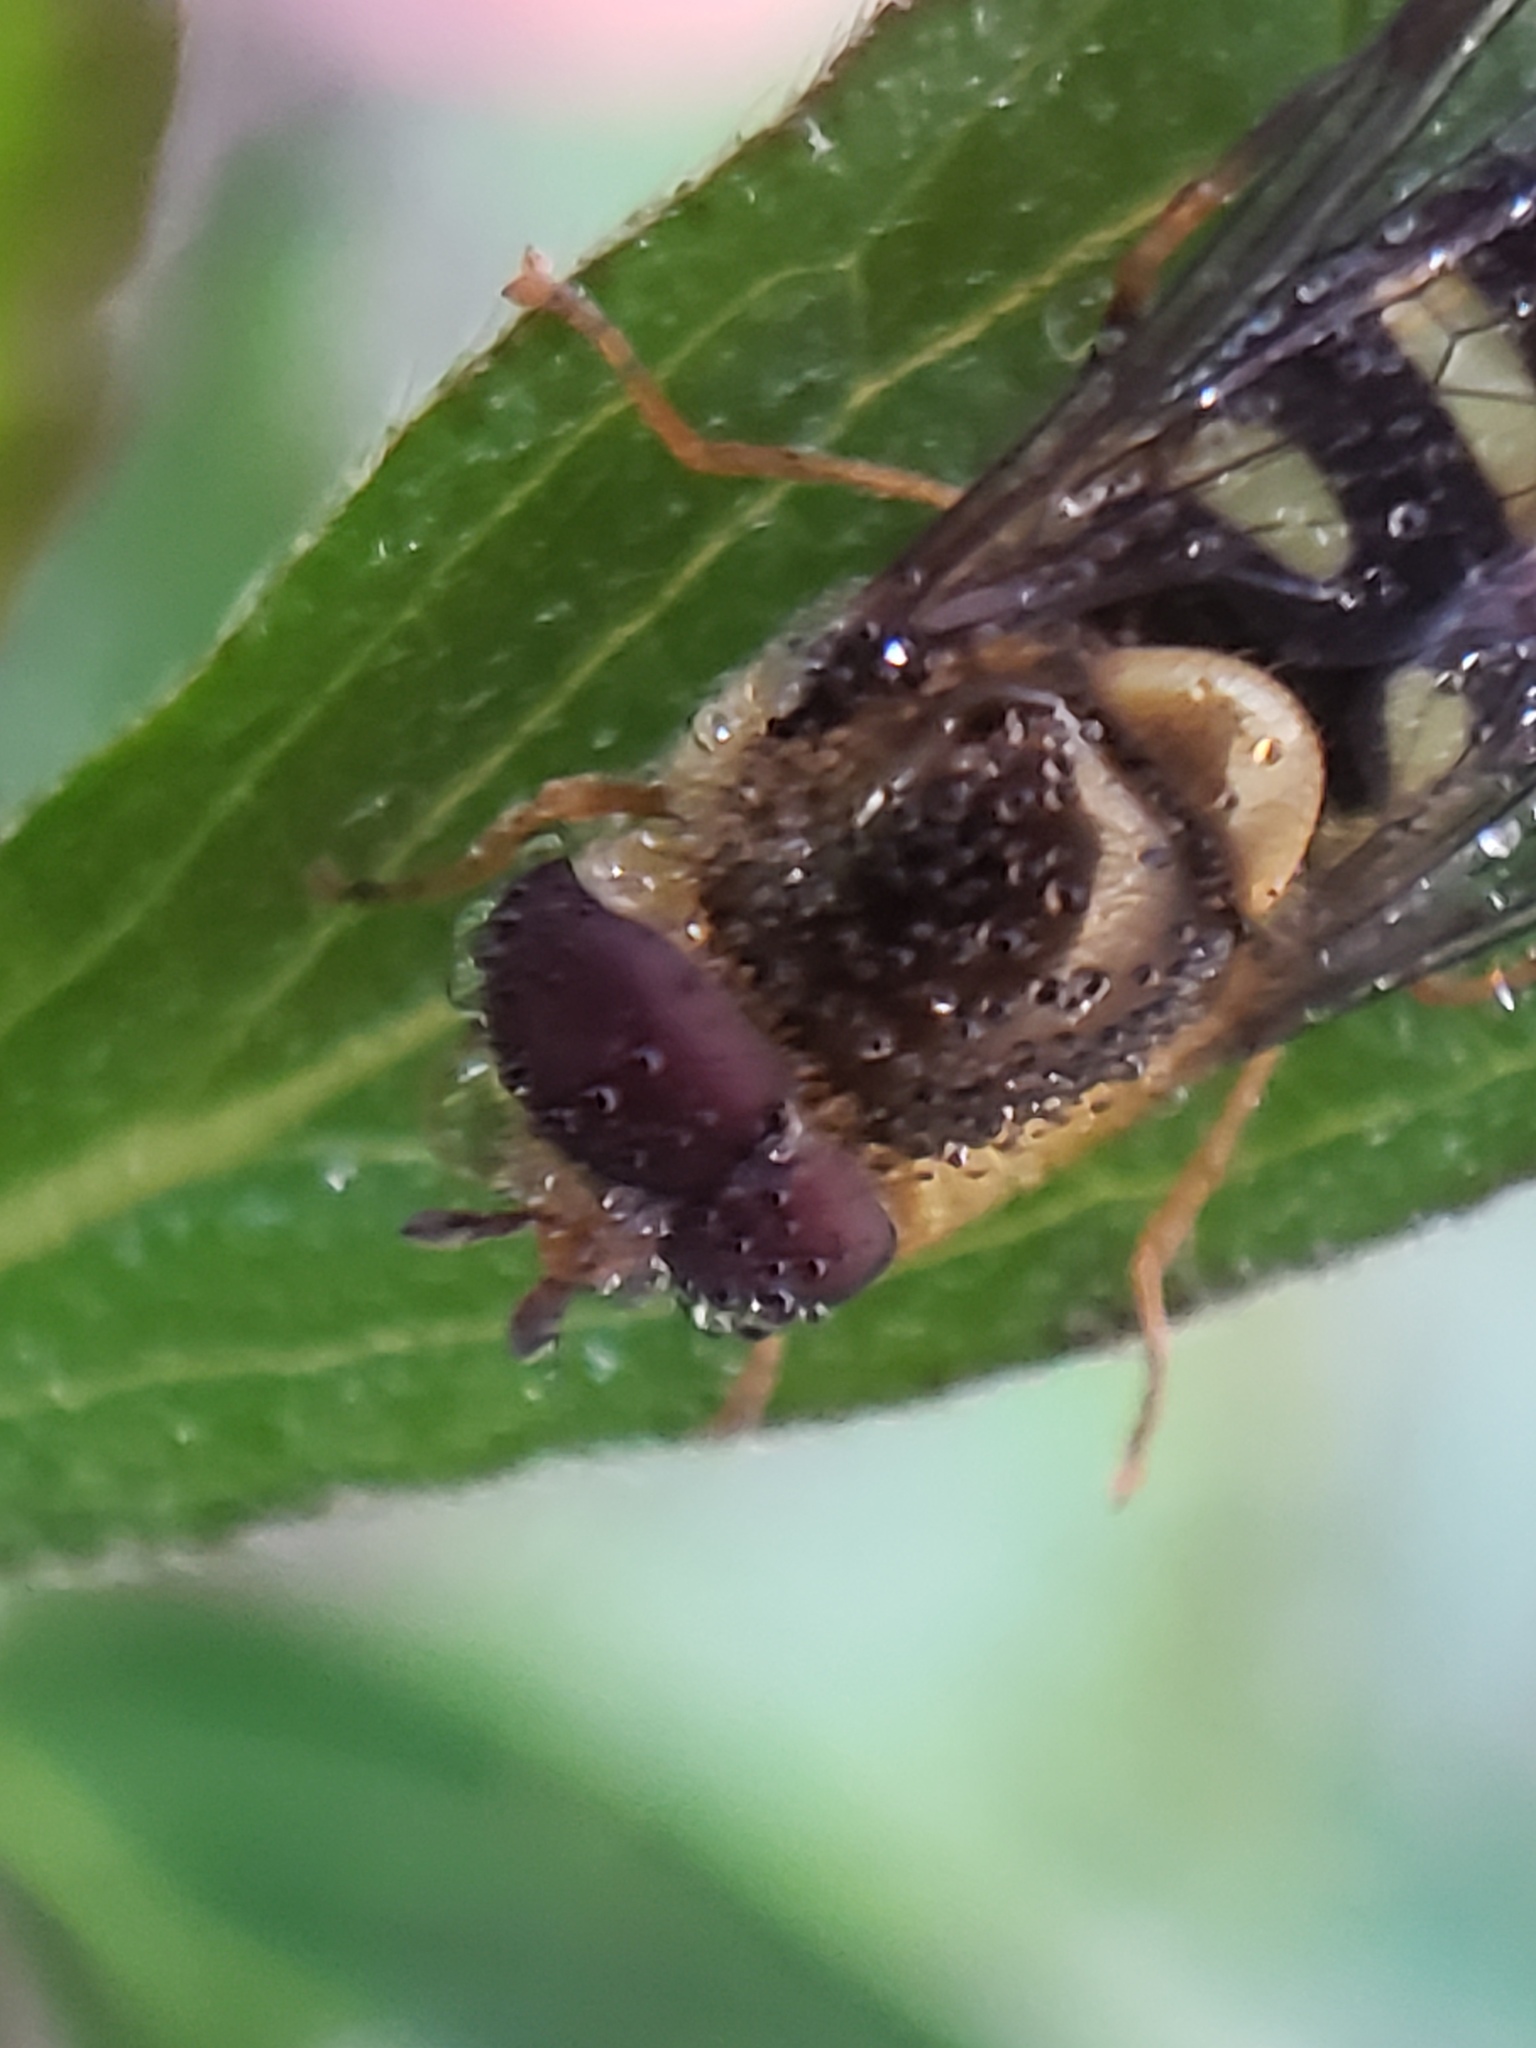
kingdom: Animalia
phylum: Arthropoda
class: Insecta
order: Diptera
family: Syrphidae
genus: Eupeodes
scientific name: Eupeodes volucris
